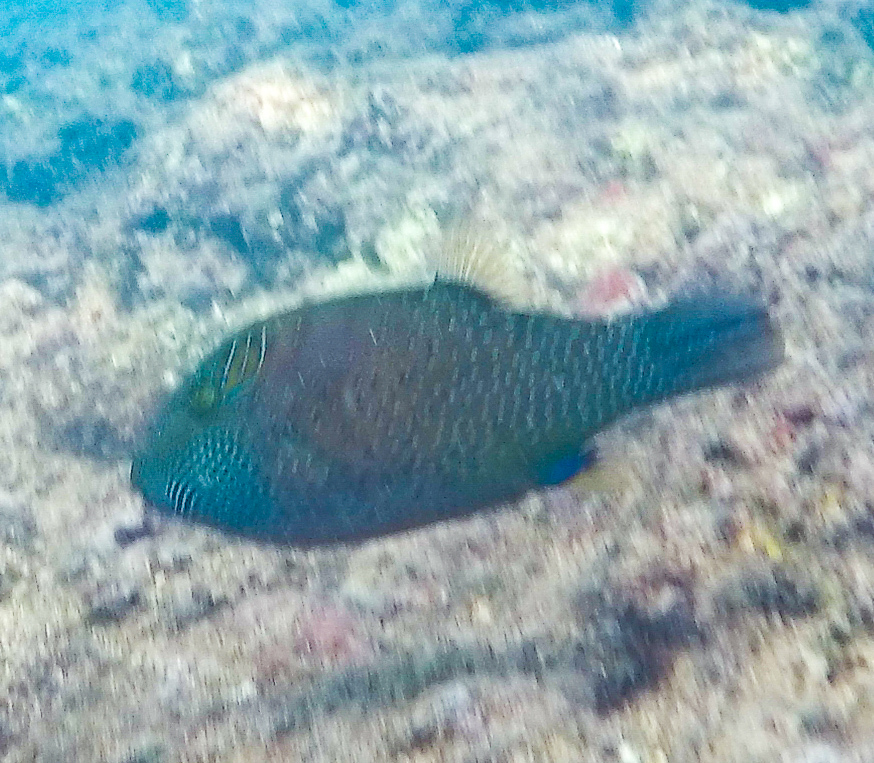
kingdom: Animalia
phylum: Chordata
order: Tetraodontiformes
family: Tetraodontidae
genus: Canthigaster
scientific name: Canthigaster amboinensis
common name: Ambon pufferfish
